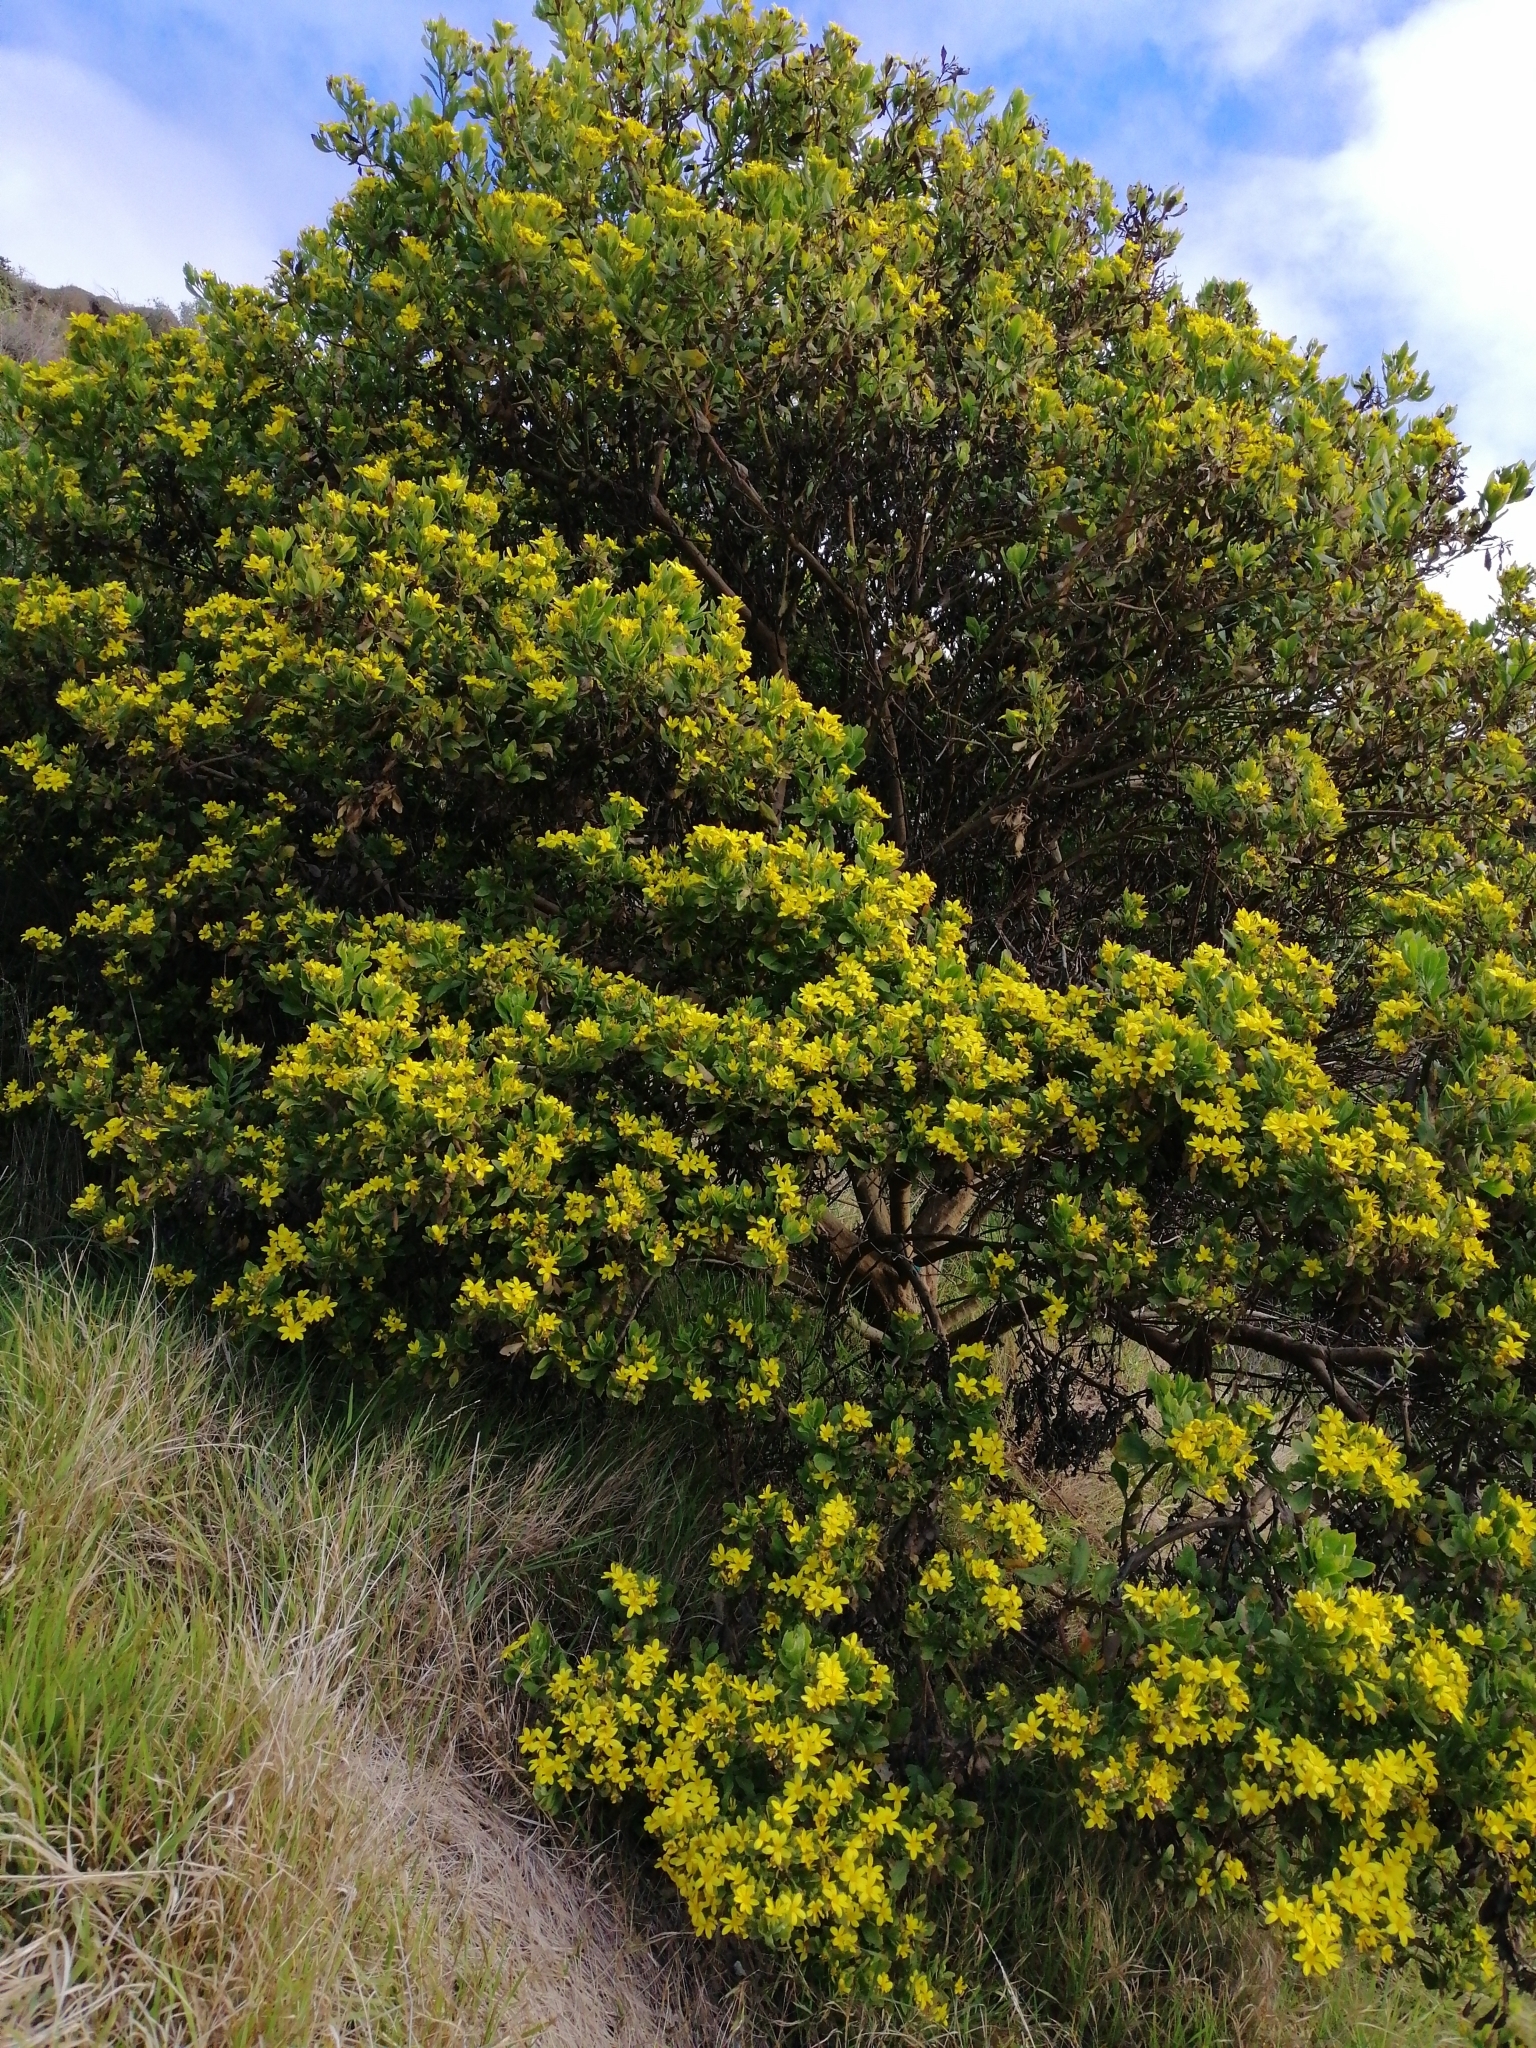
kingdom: Plantae
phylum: Tracheophyta
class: Magnoliopsida
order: Asterales
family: Asteraceae
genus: Osteospermum
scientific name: Osteospermum moniliferum
